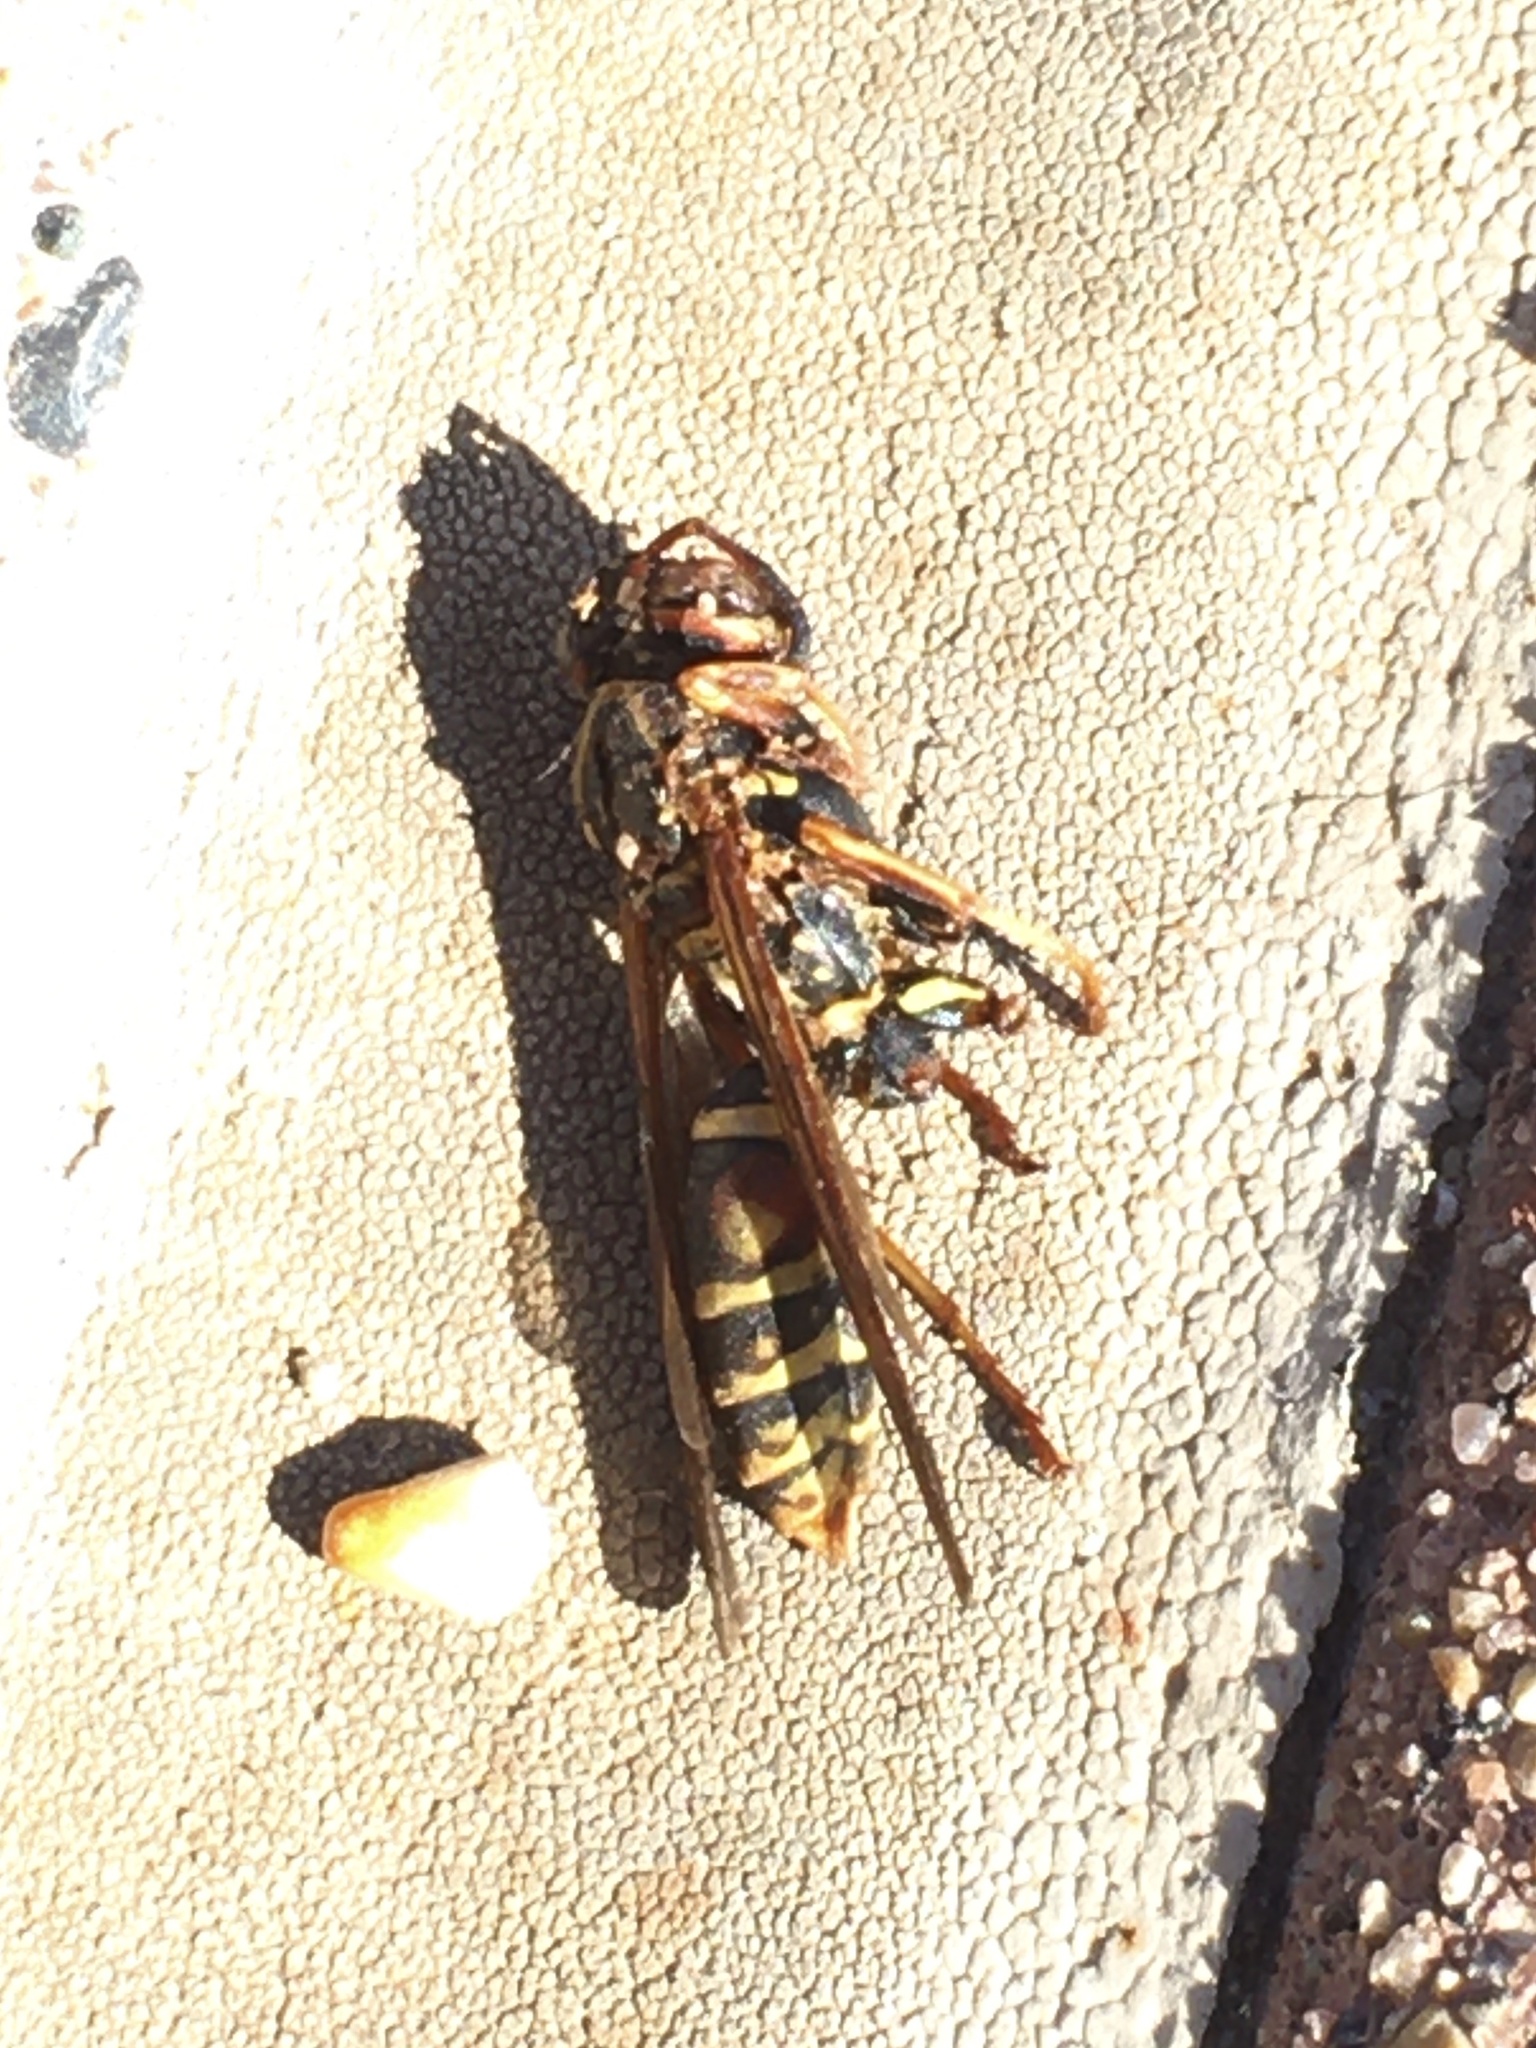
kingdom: Animalia
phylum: Arthropoda
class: Insecta
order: Hymenoptera
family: Eumenidae
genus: Polistes
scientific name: Polistes fuscatus
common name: Dark paper wasp
